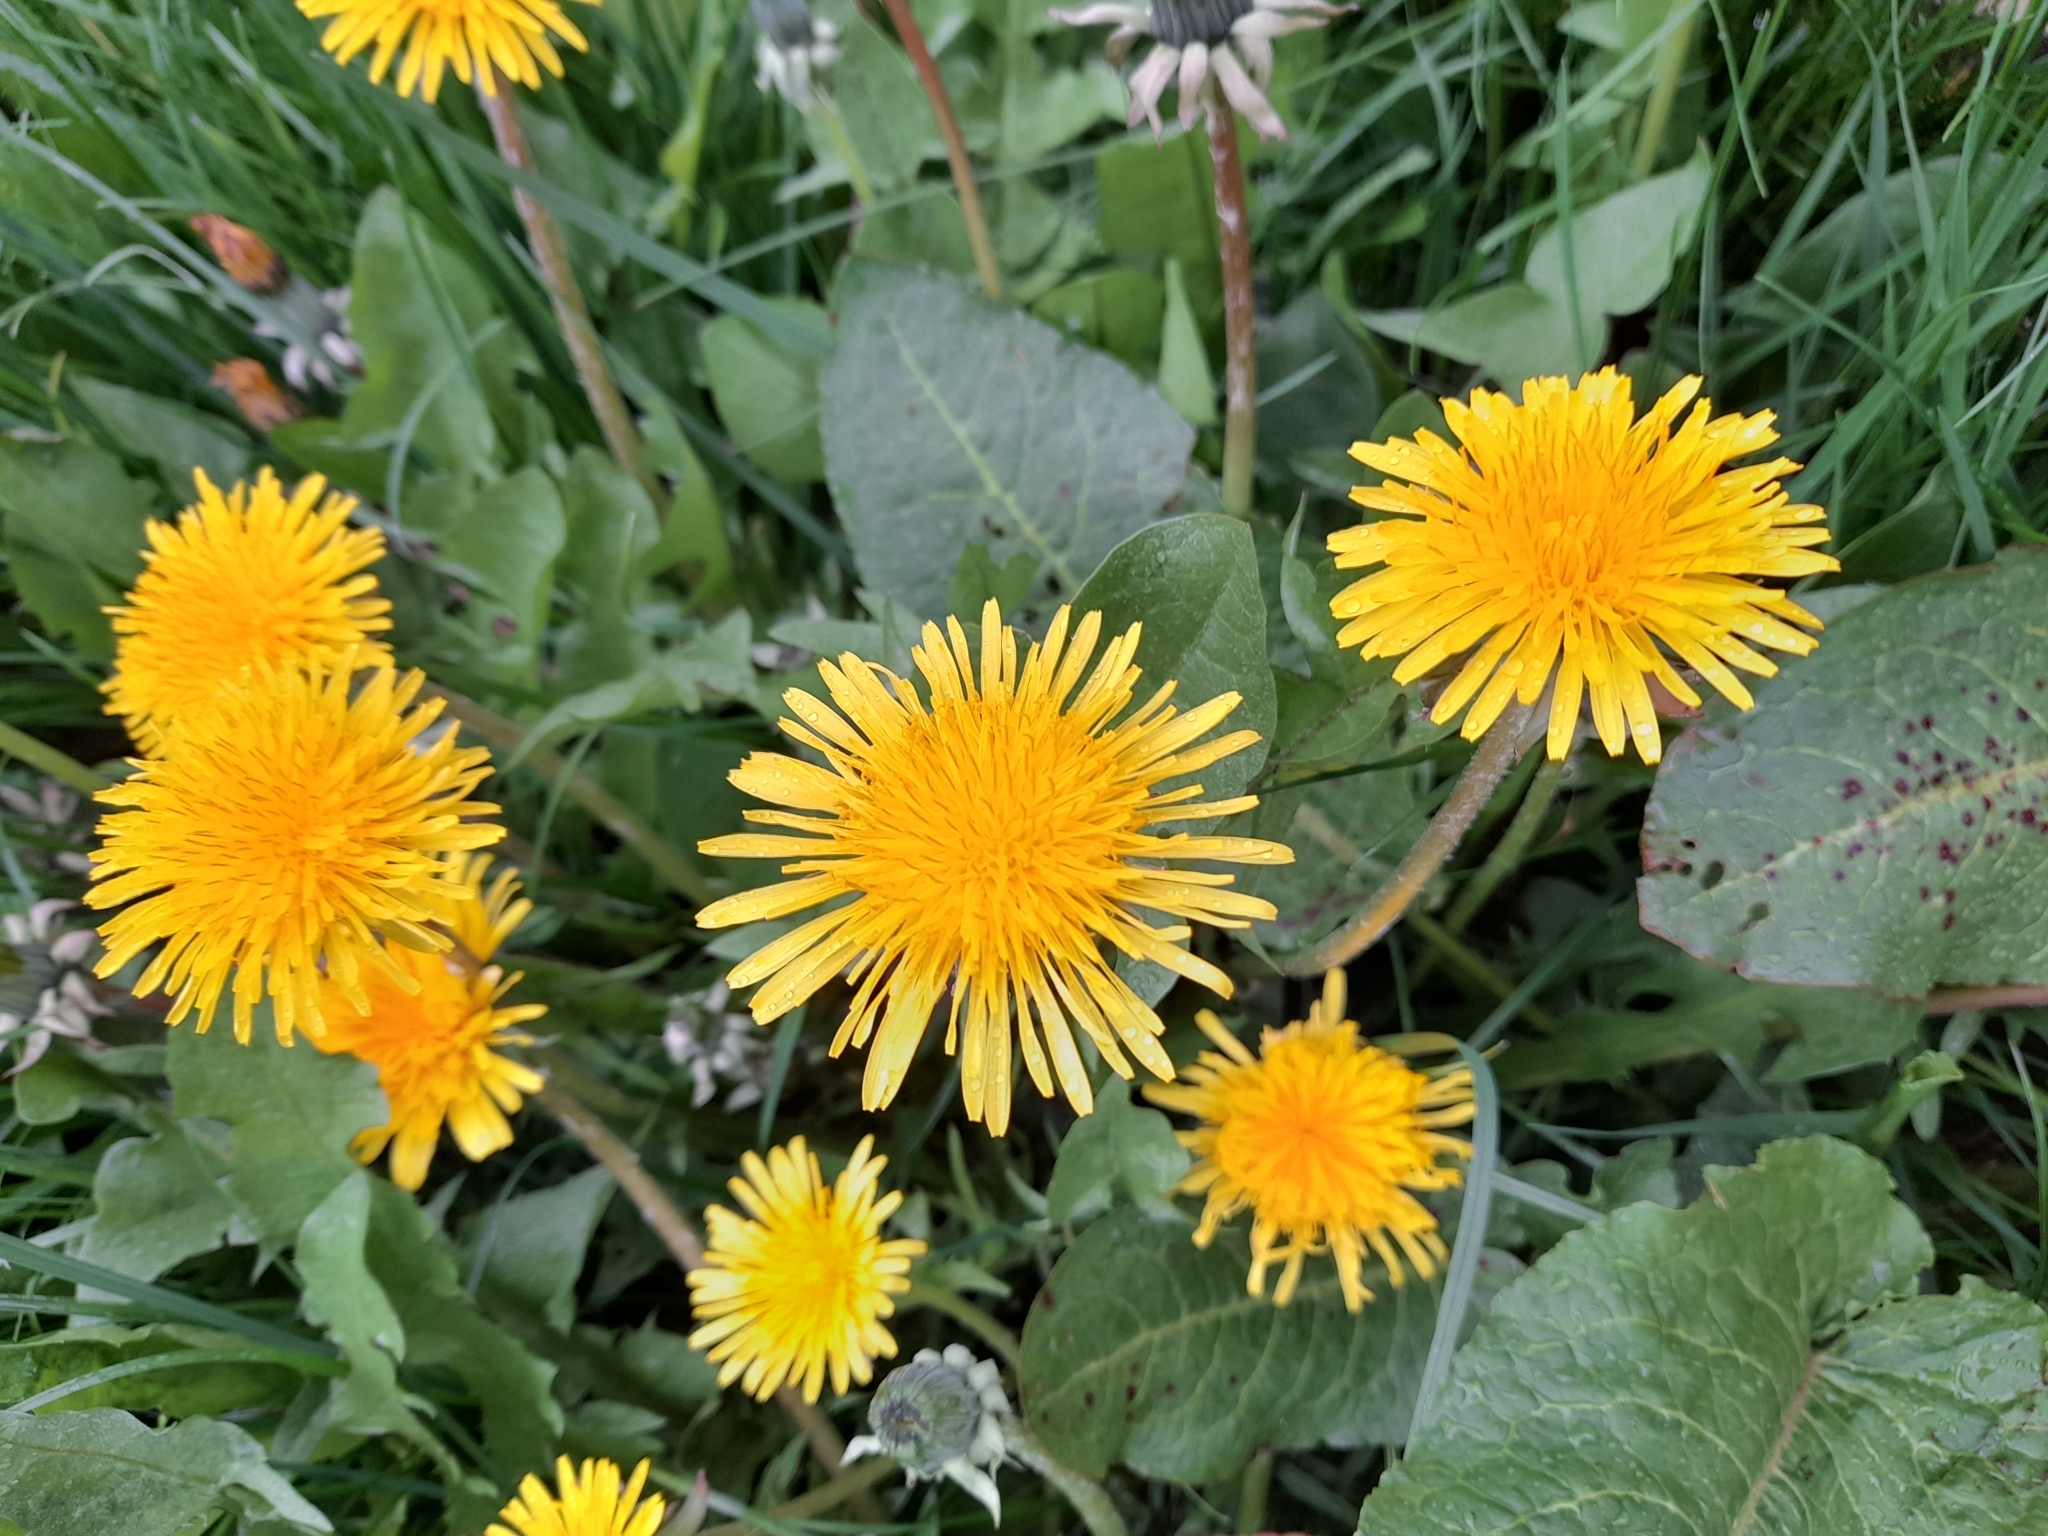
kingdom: Plantae
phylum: Tracheophyta
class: Magnoliopsida
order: Asterales
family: Asteraceae
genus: Taraxacum
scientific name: Taraxacum officinale
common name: Common dandelion
